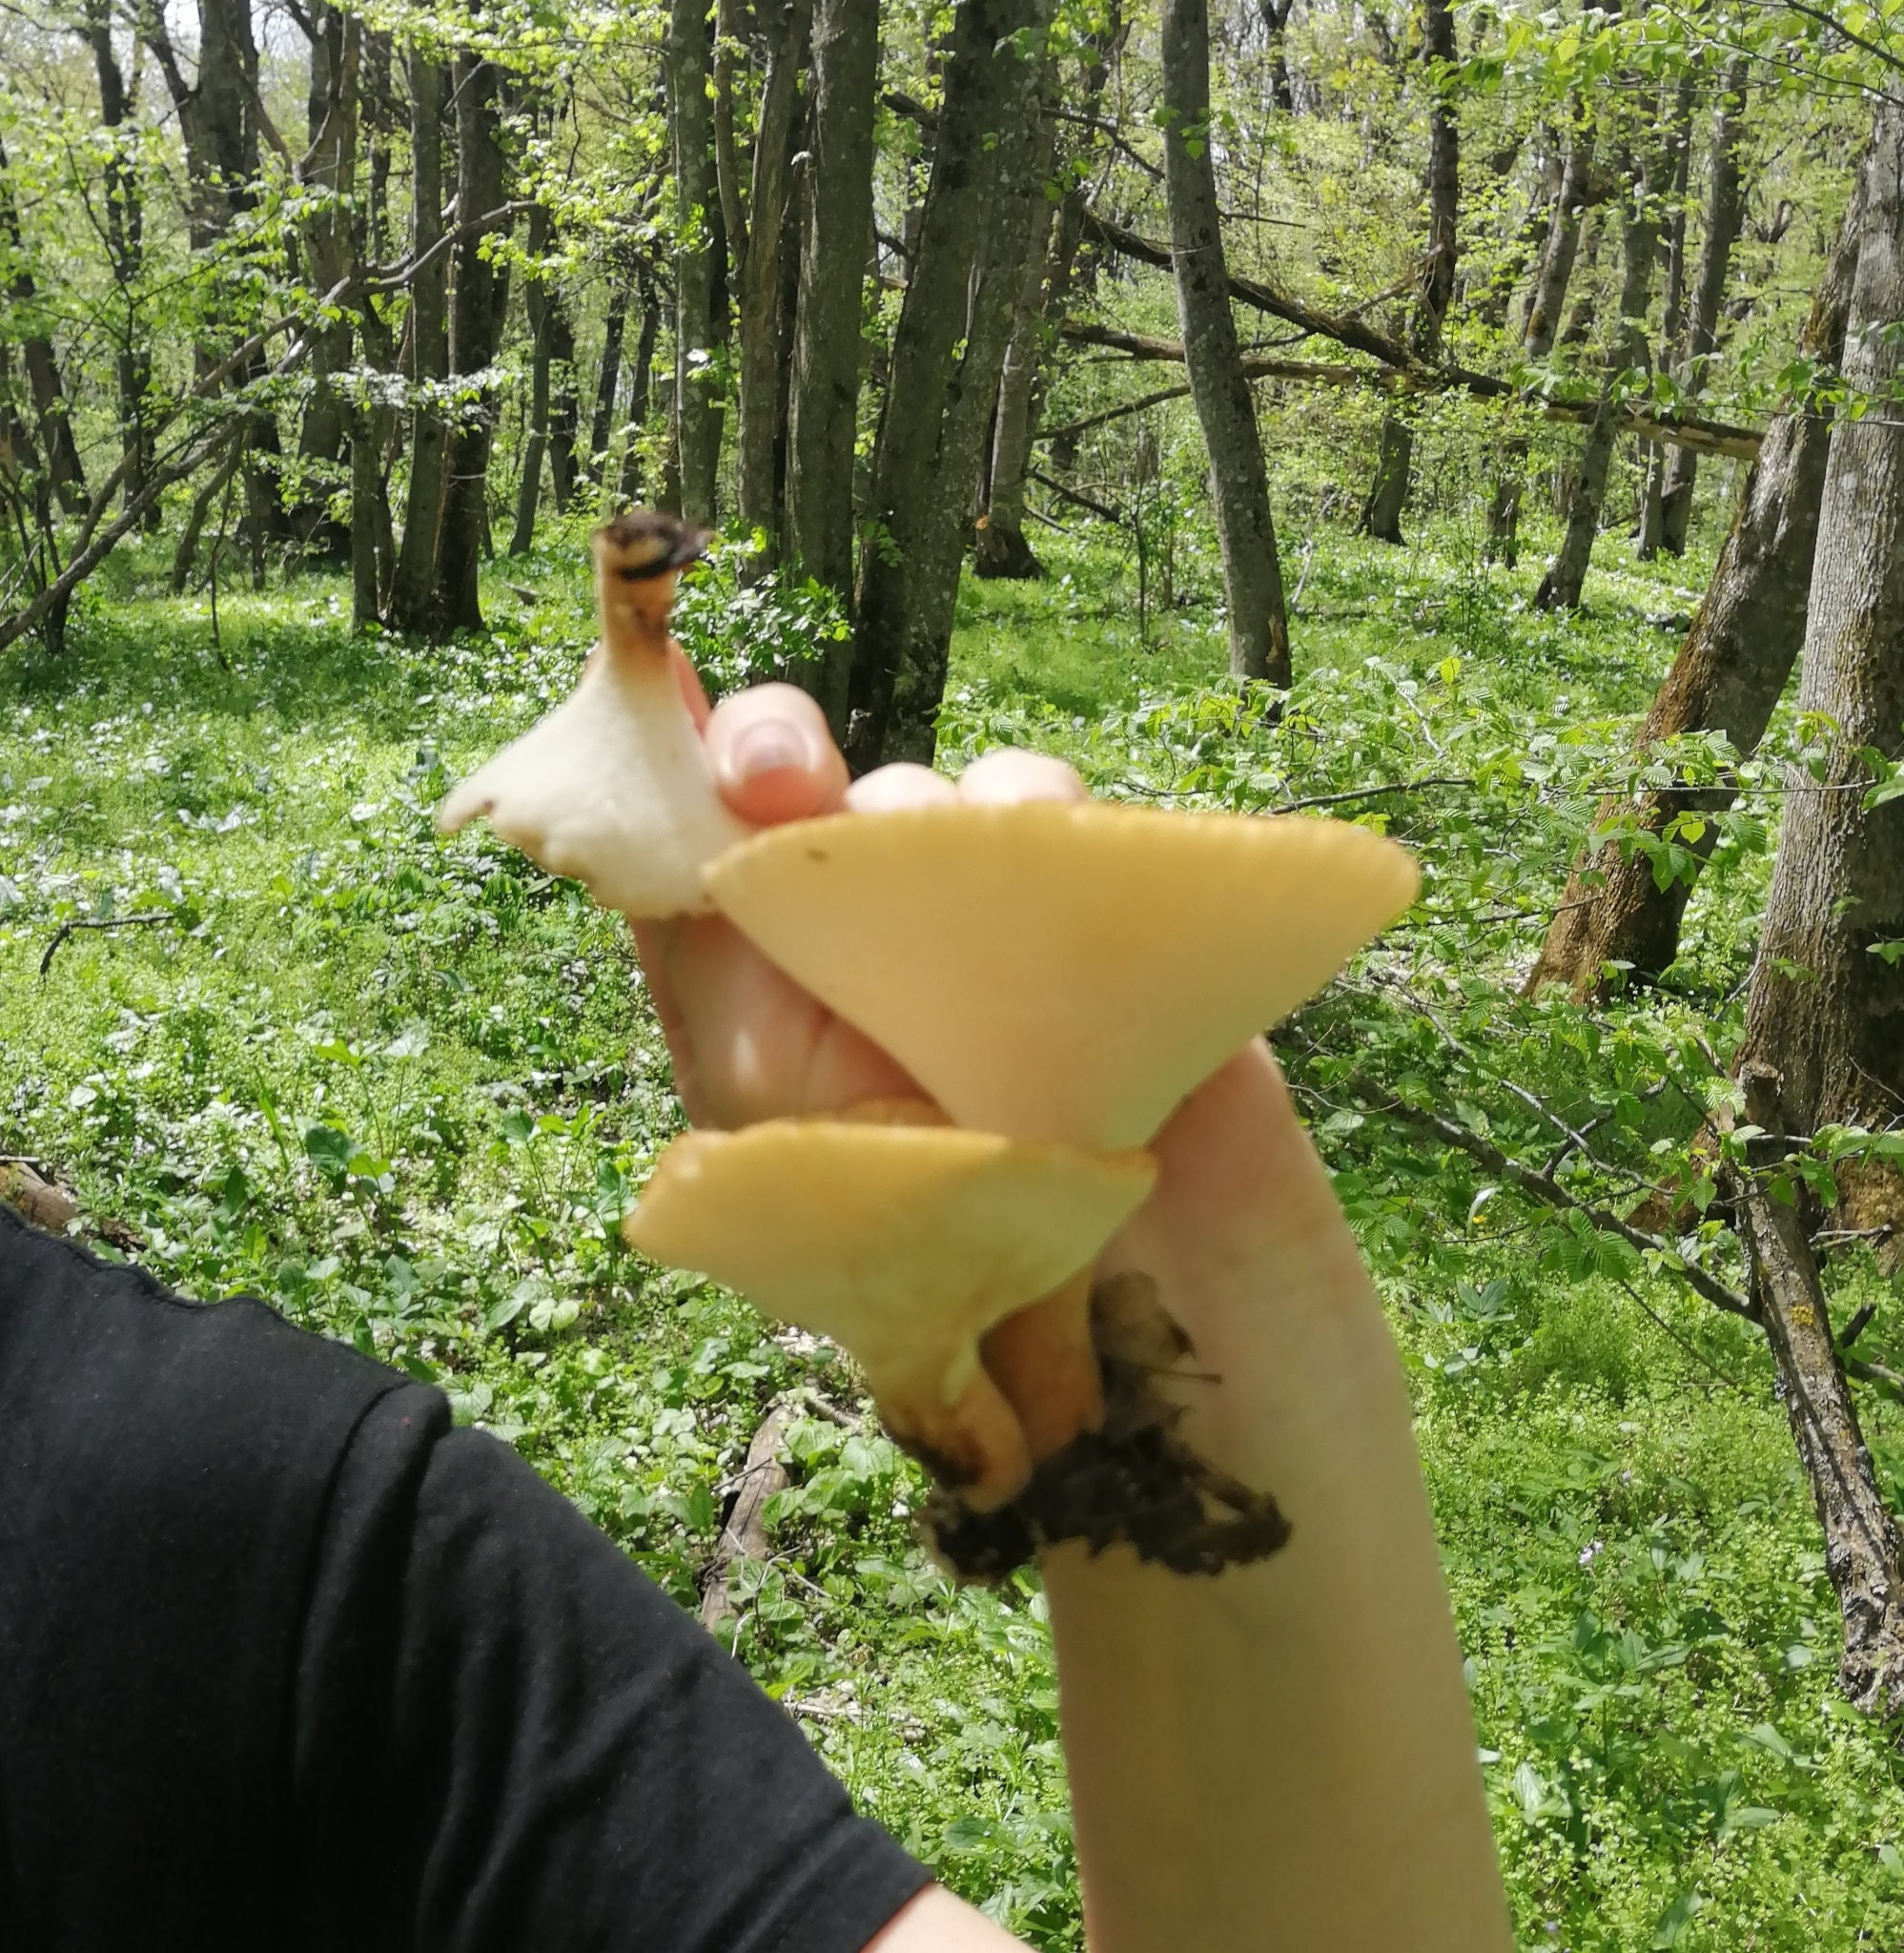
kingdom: Fungi
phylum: Basidiomycota
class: Agaricomycetes
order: Polyporales
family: Polyporaceae
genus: Polyporus
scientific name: Polyporus tuberaster
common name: Tuberous polypore
